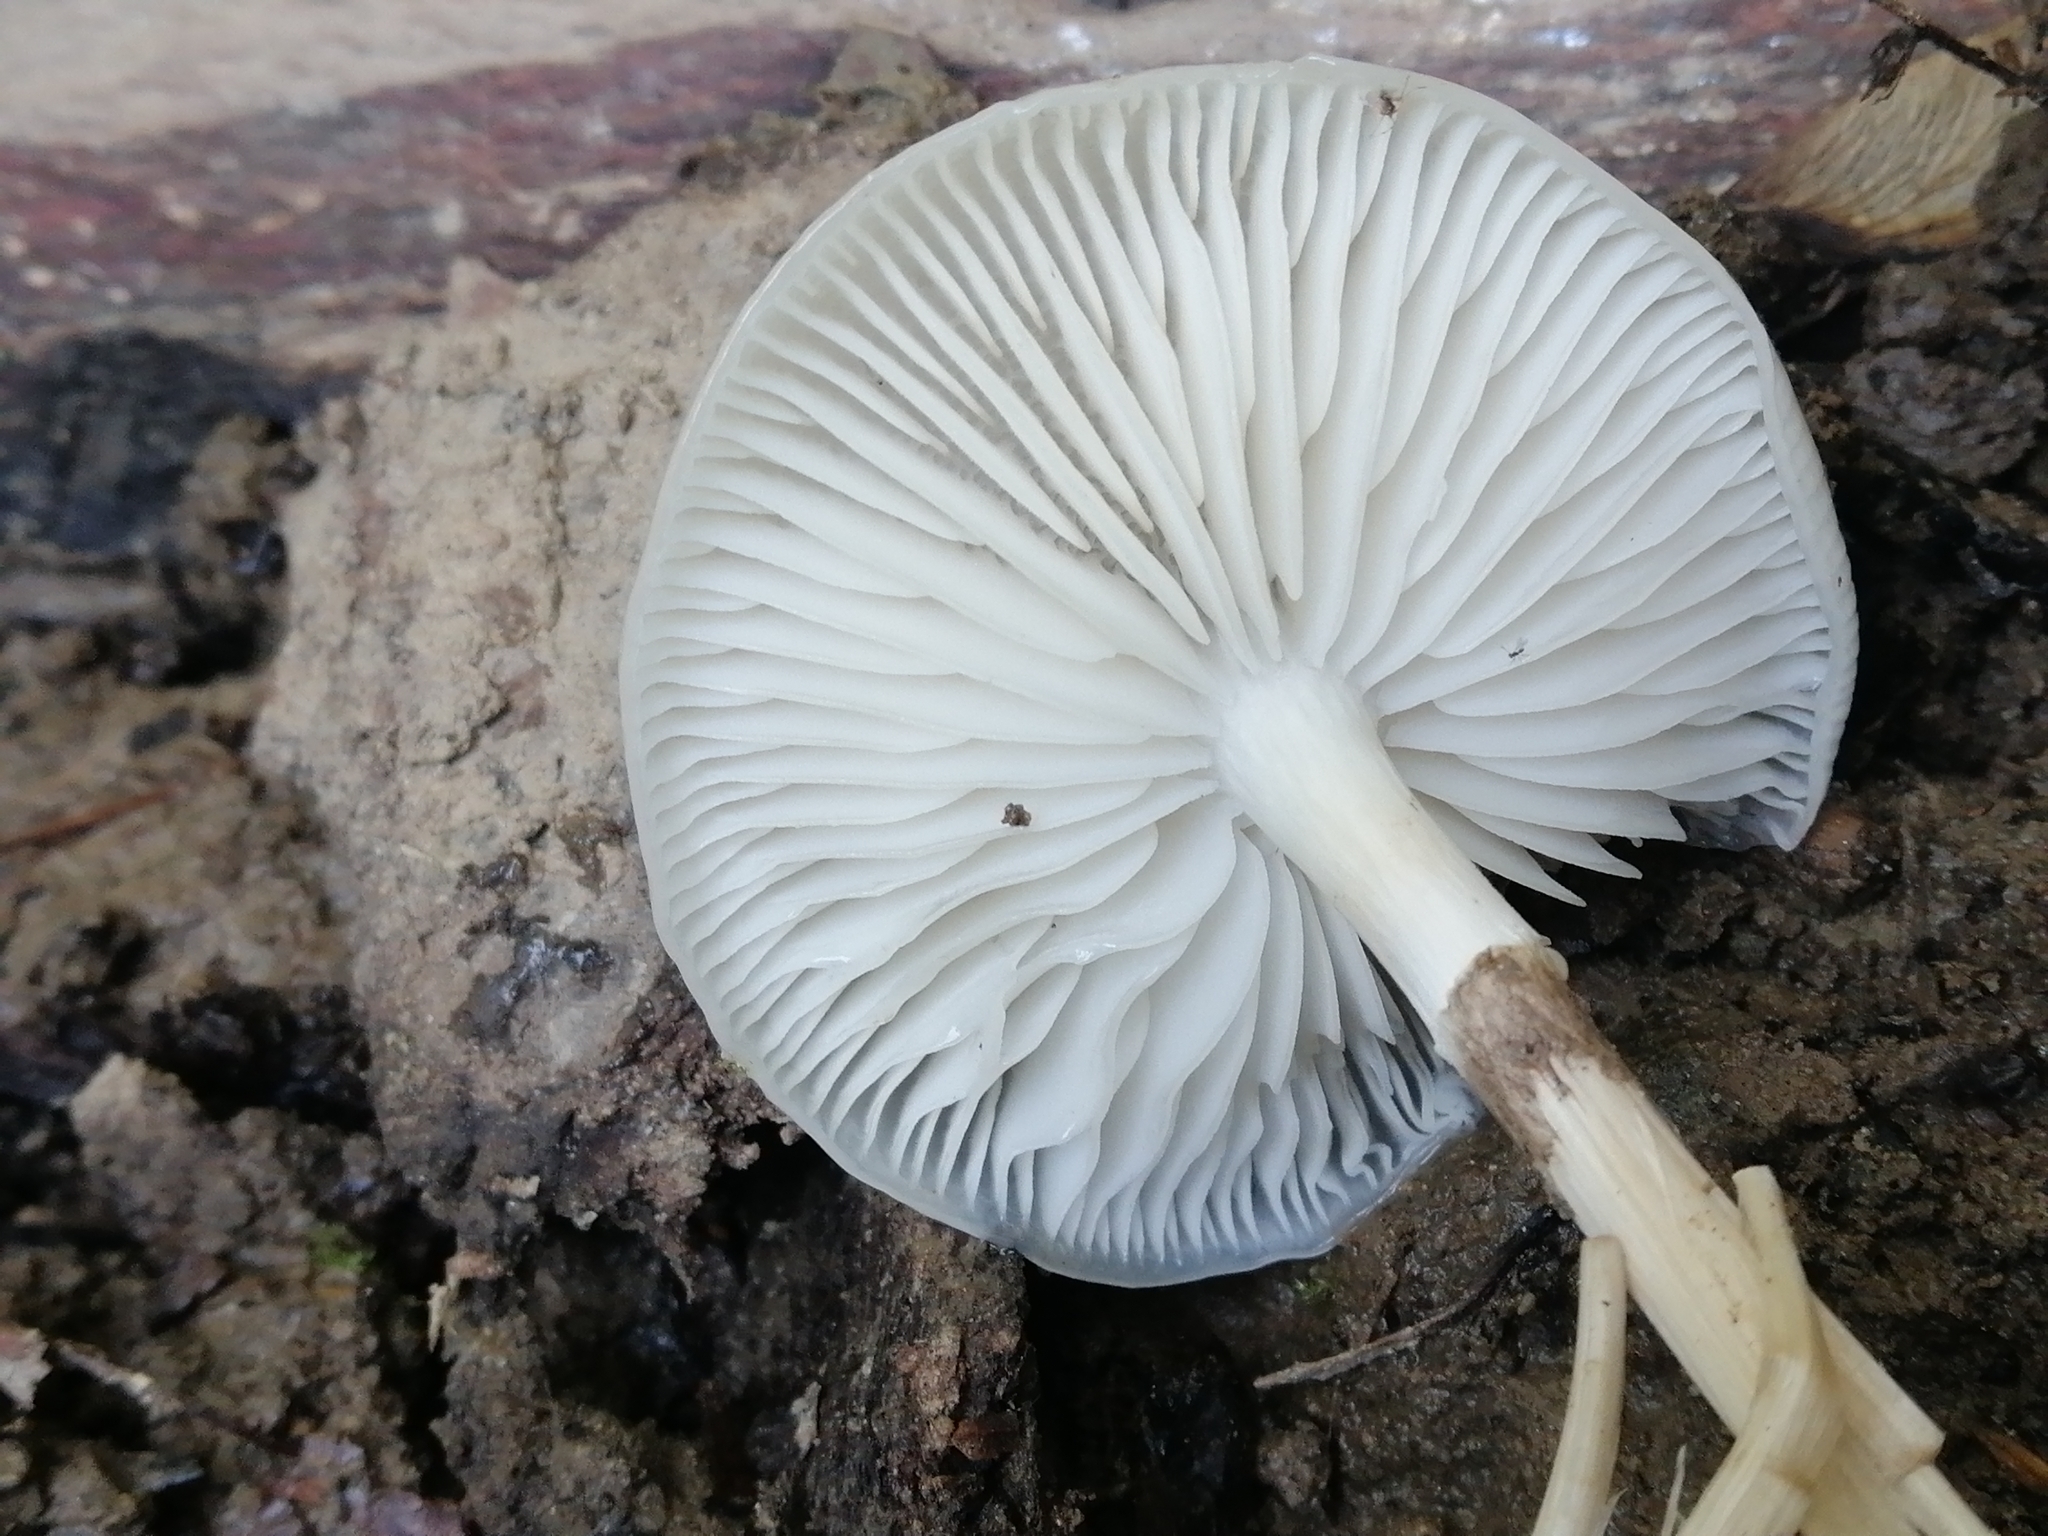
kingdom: Fungi
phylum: Basidiomycota
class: Agaricomycetes
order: Agaricales
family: Physalacriaceae
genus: Mucidula
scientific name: Mucidula mucida
